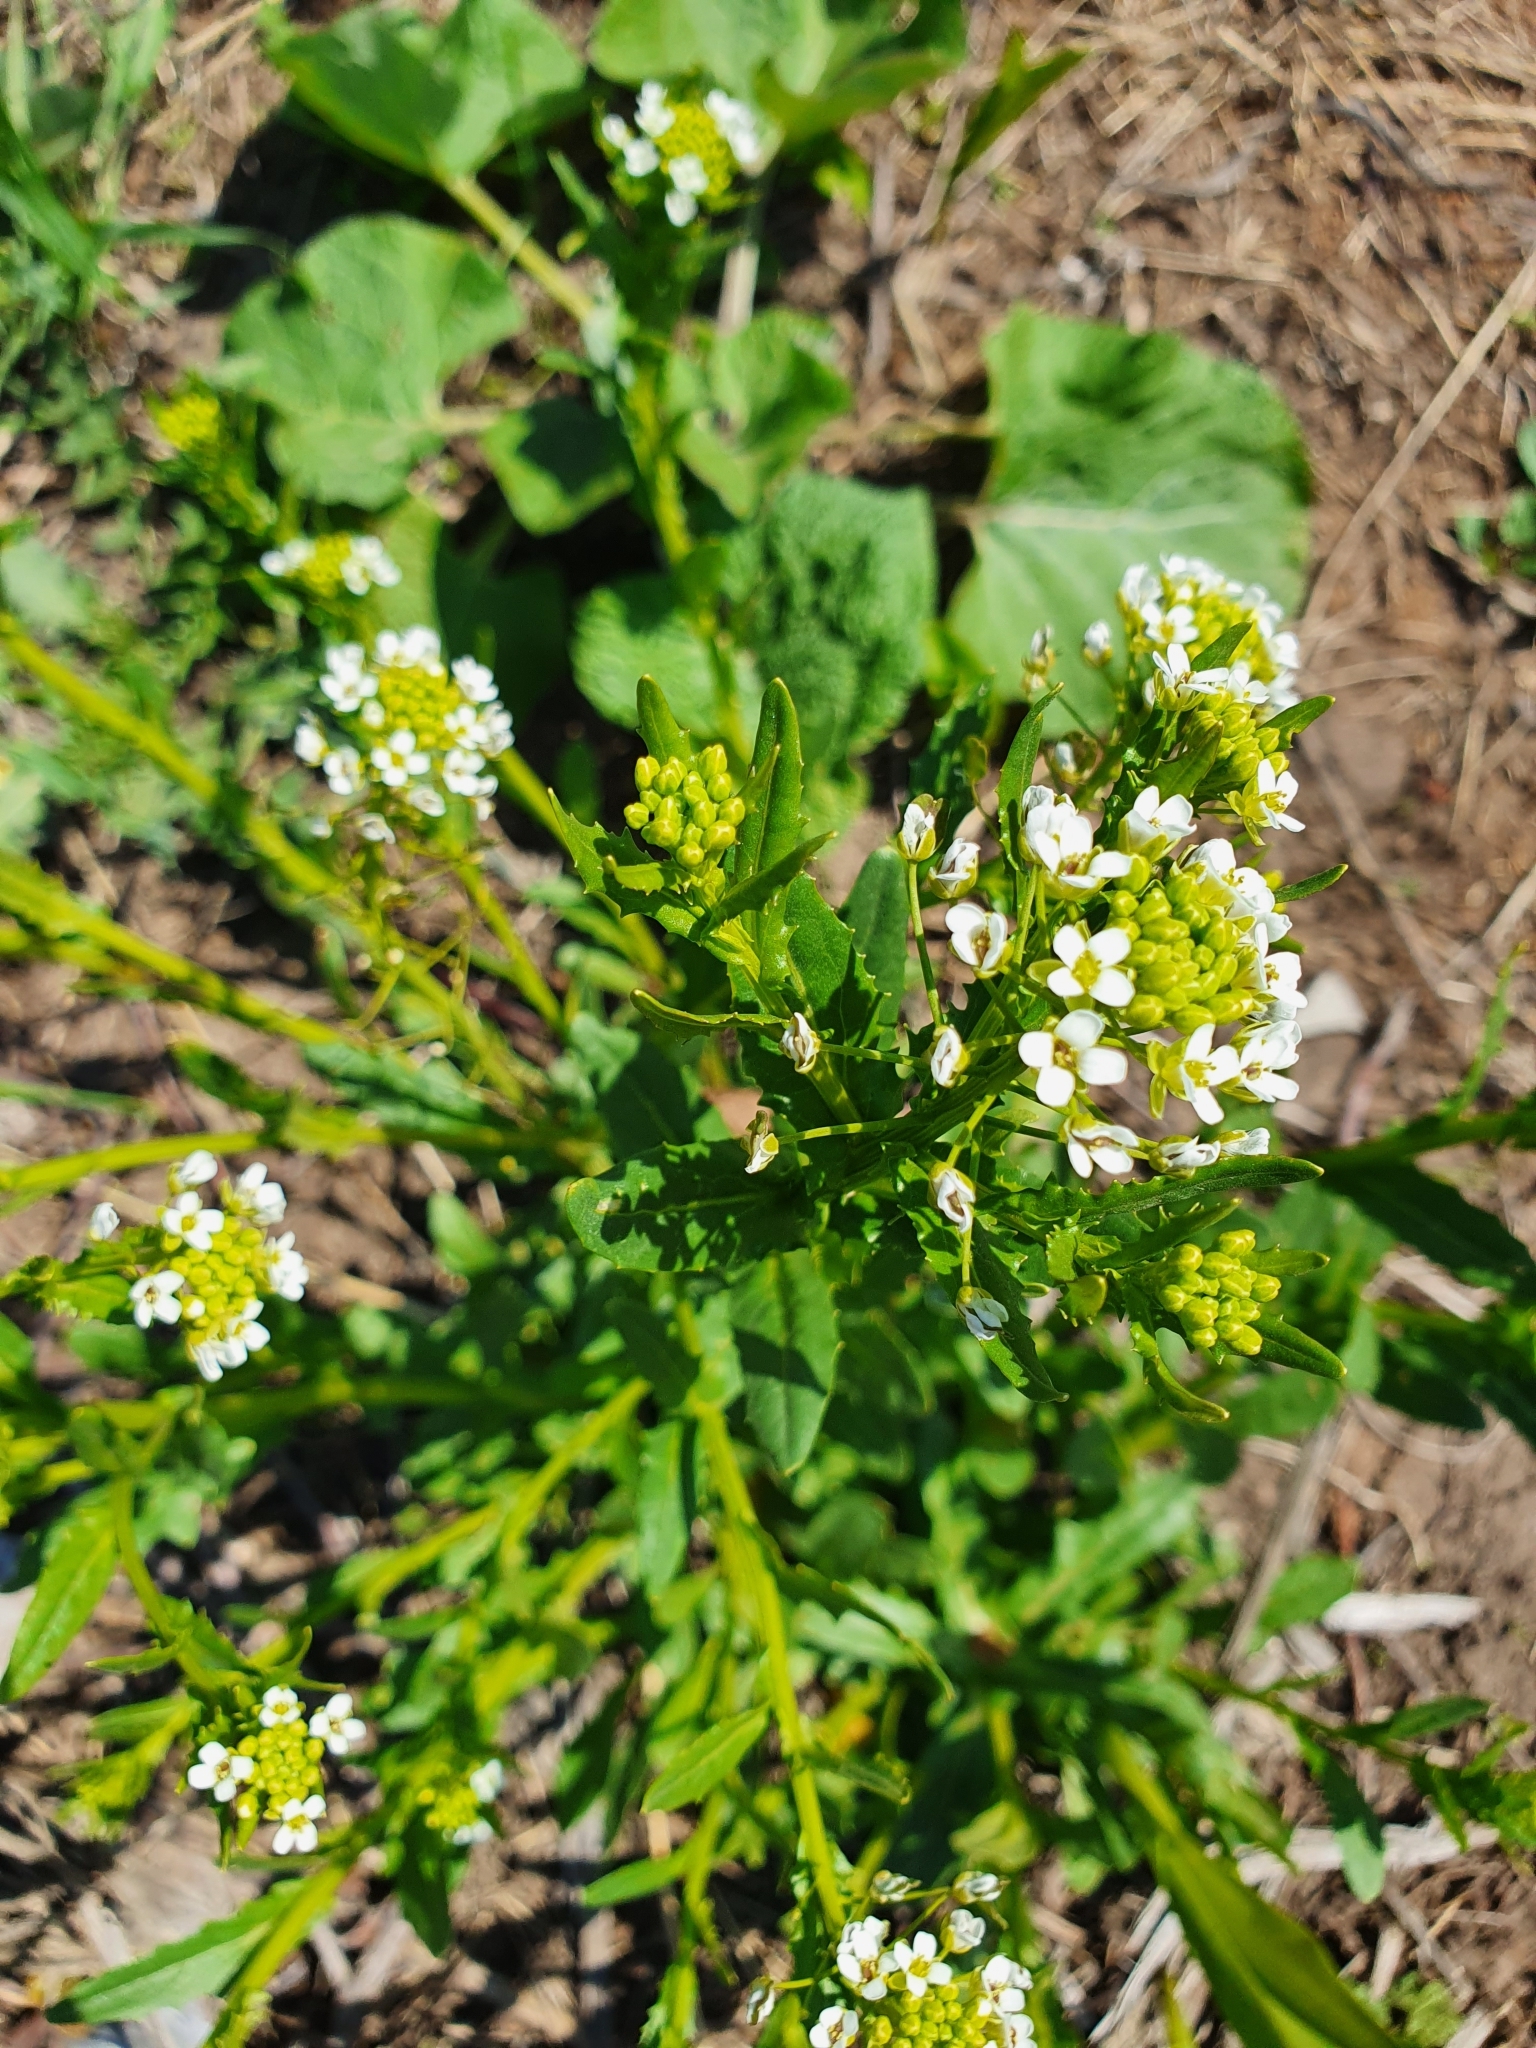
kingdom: Plantae
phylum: Tracheophyta
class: Magnoliopsida
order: Brassicales
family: Brassicaceae
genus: Thlaspi
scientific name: Thlaspi arvense
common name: Field pennycress
